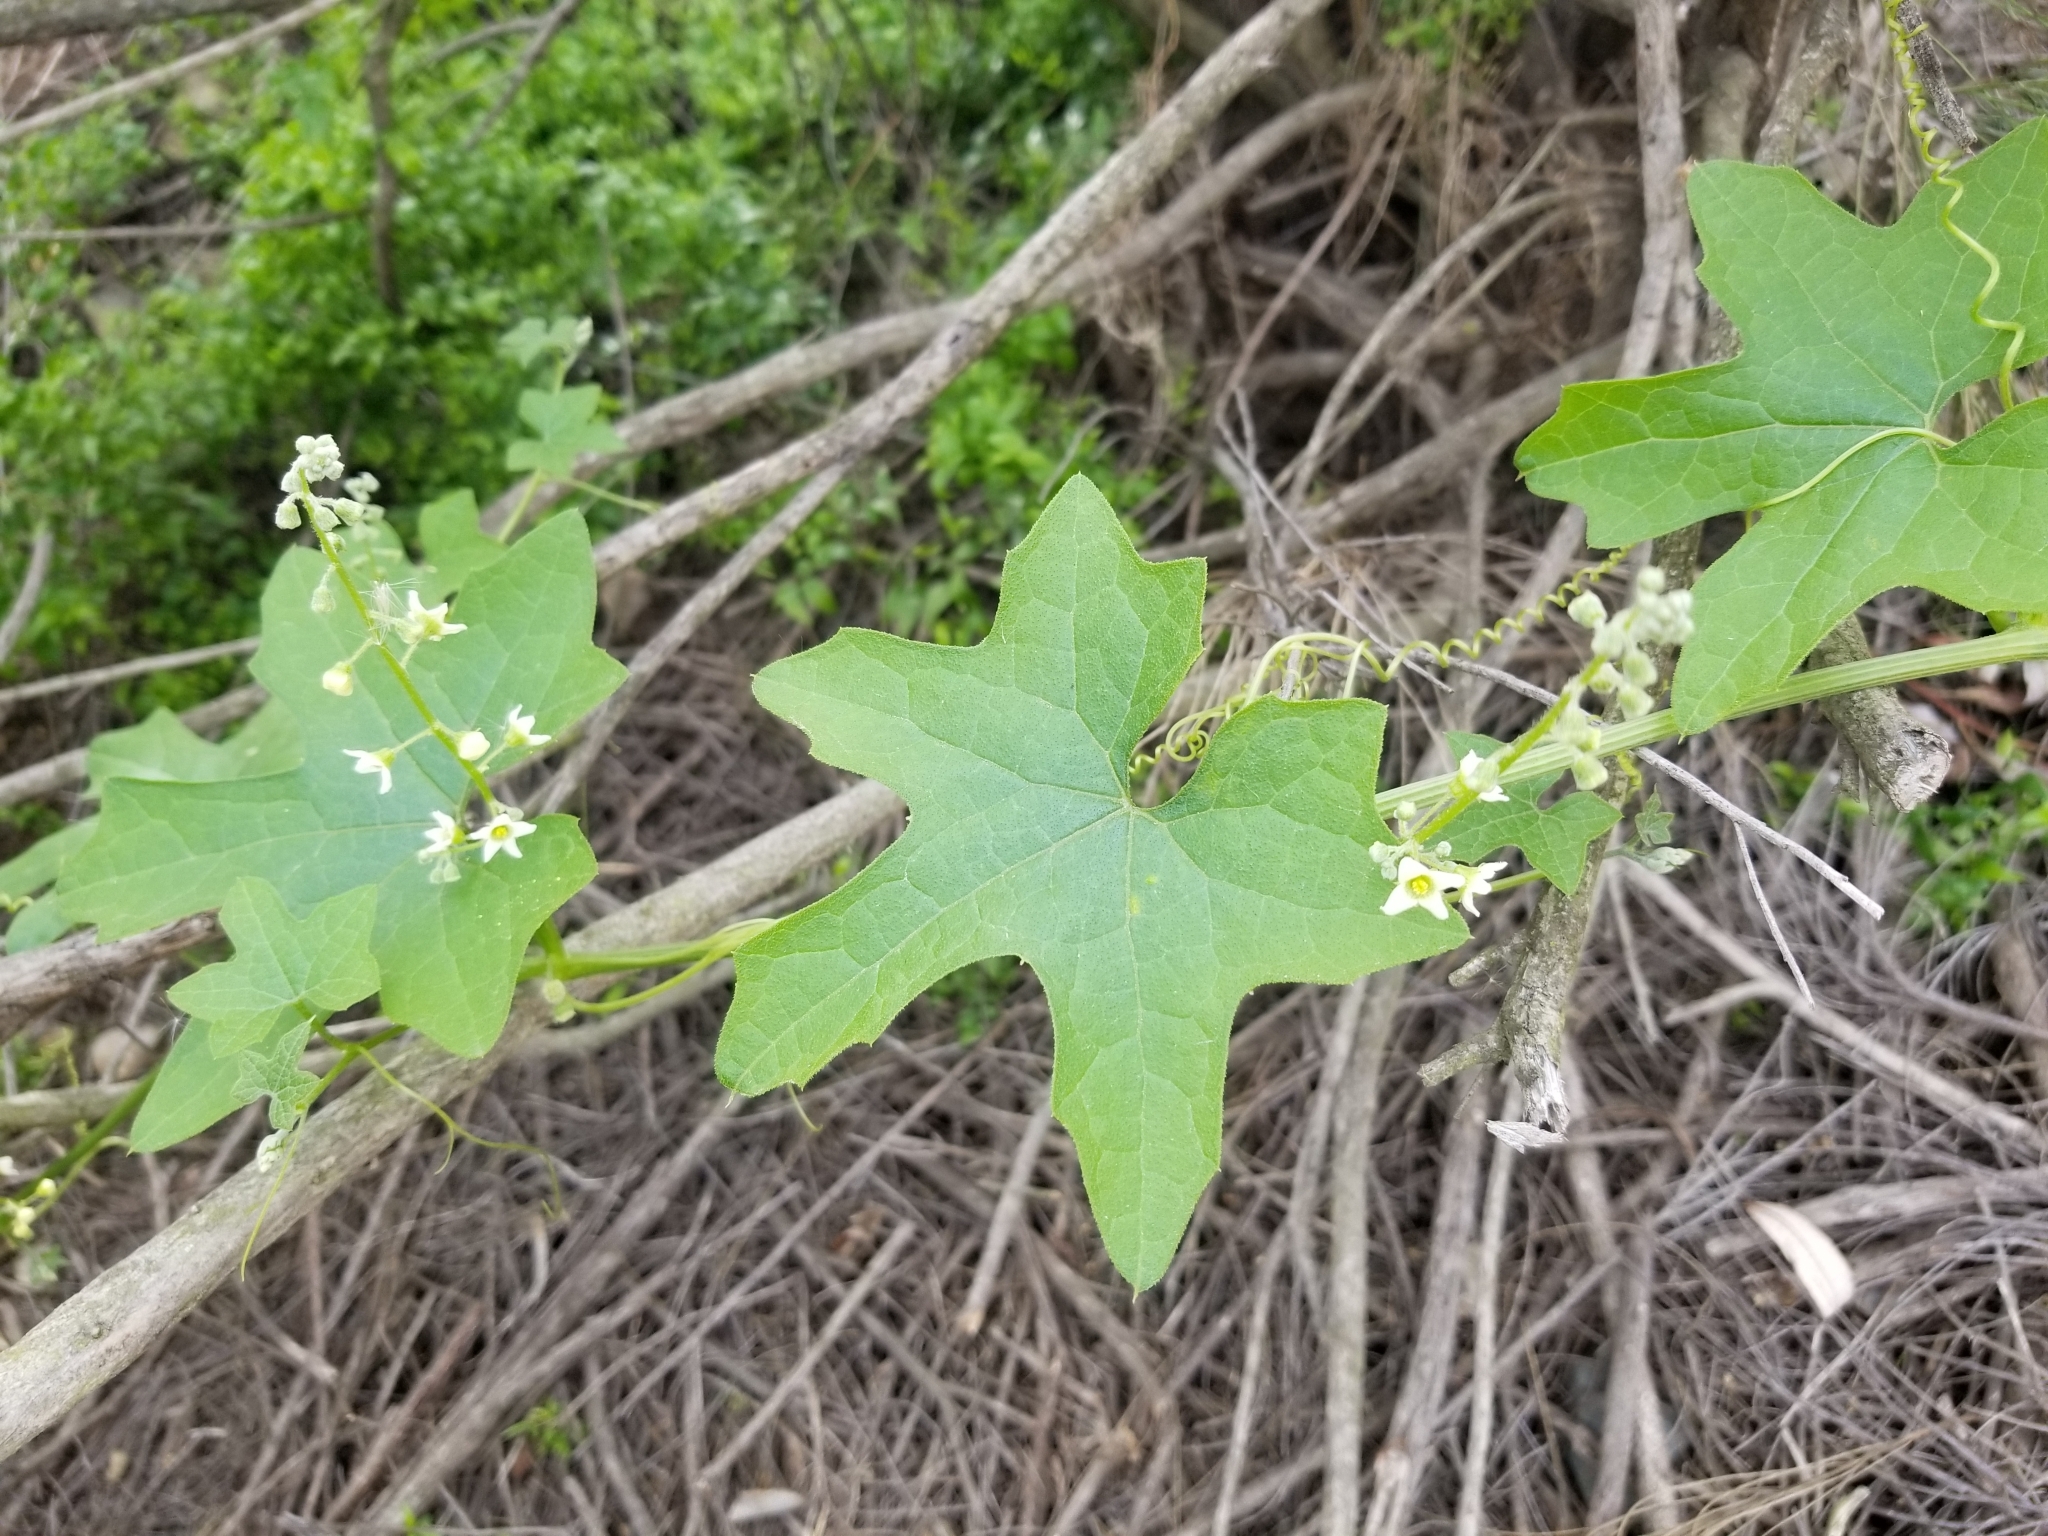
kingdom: Plantae
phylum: Tracheophyta
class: Magnoliopsida
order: Cucurbitales
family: Cucurbitaceae
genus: Marah
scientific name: Marah macrocarpa
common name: Cucamonga manroot
